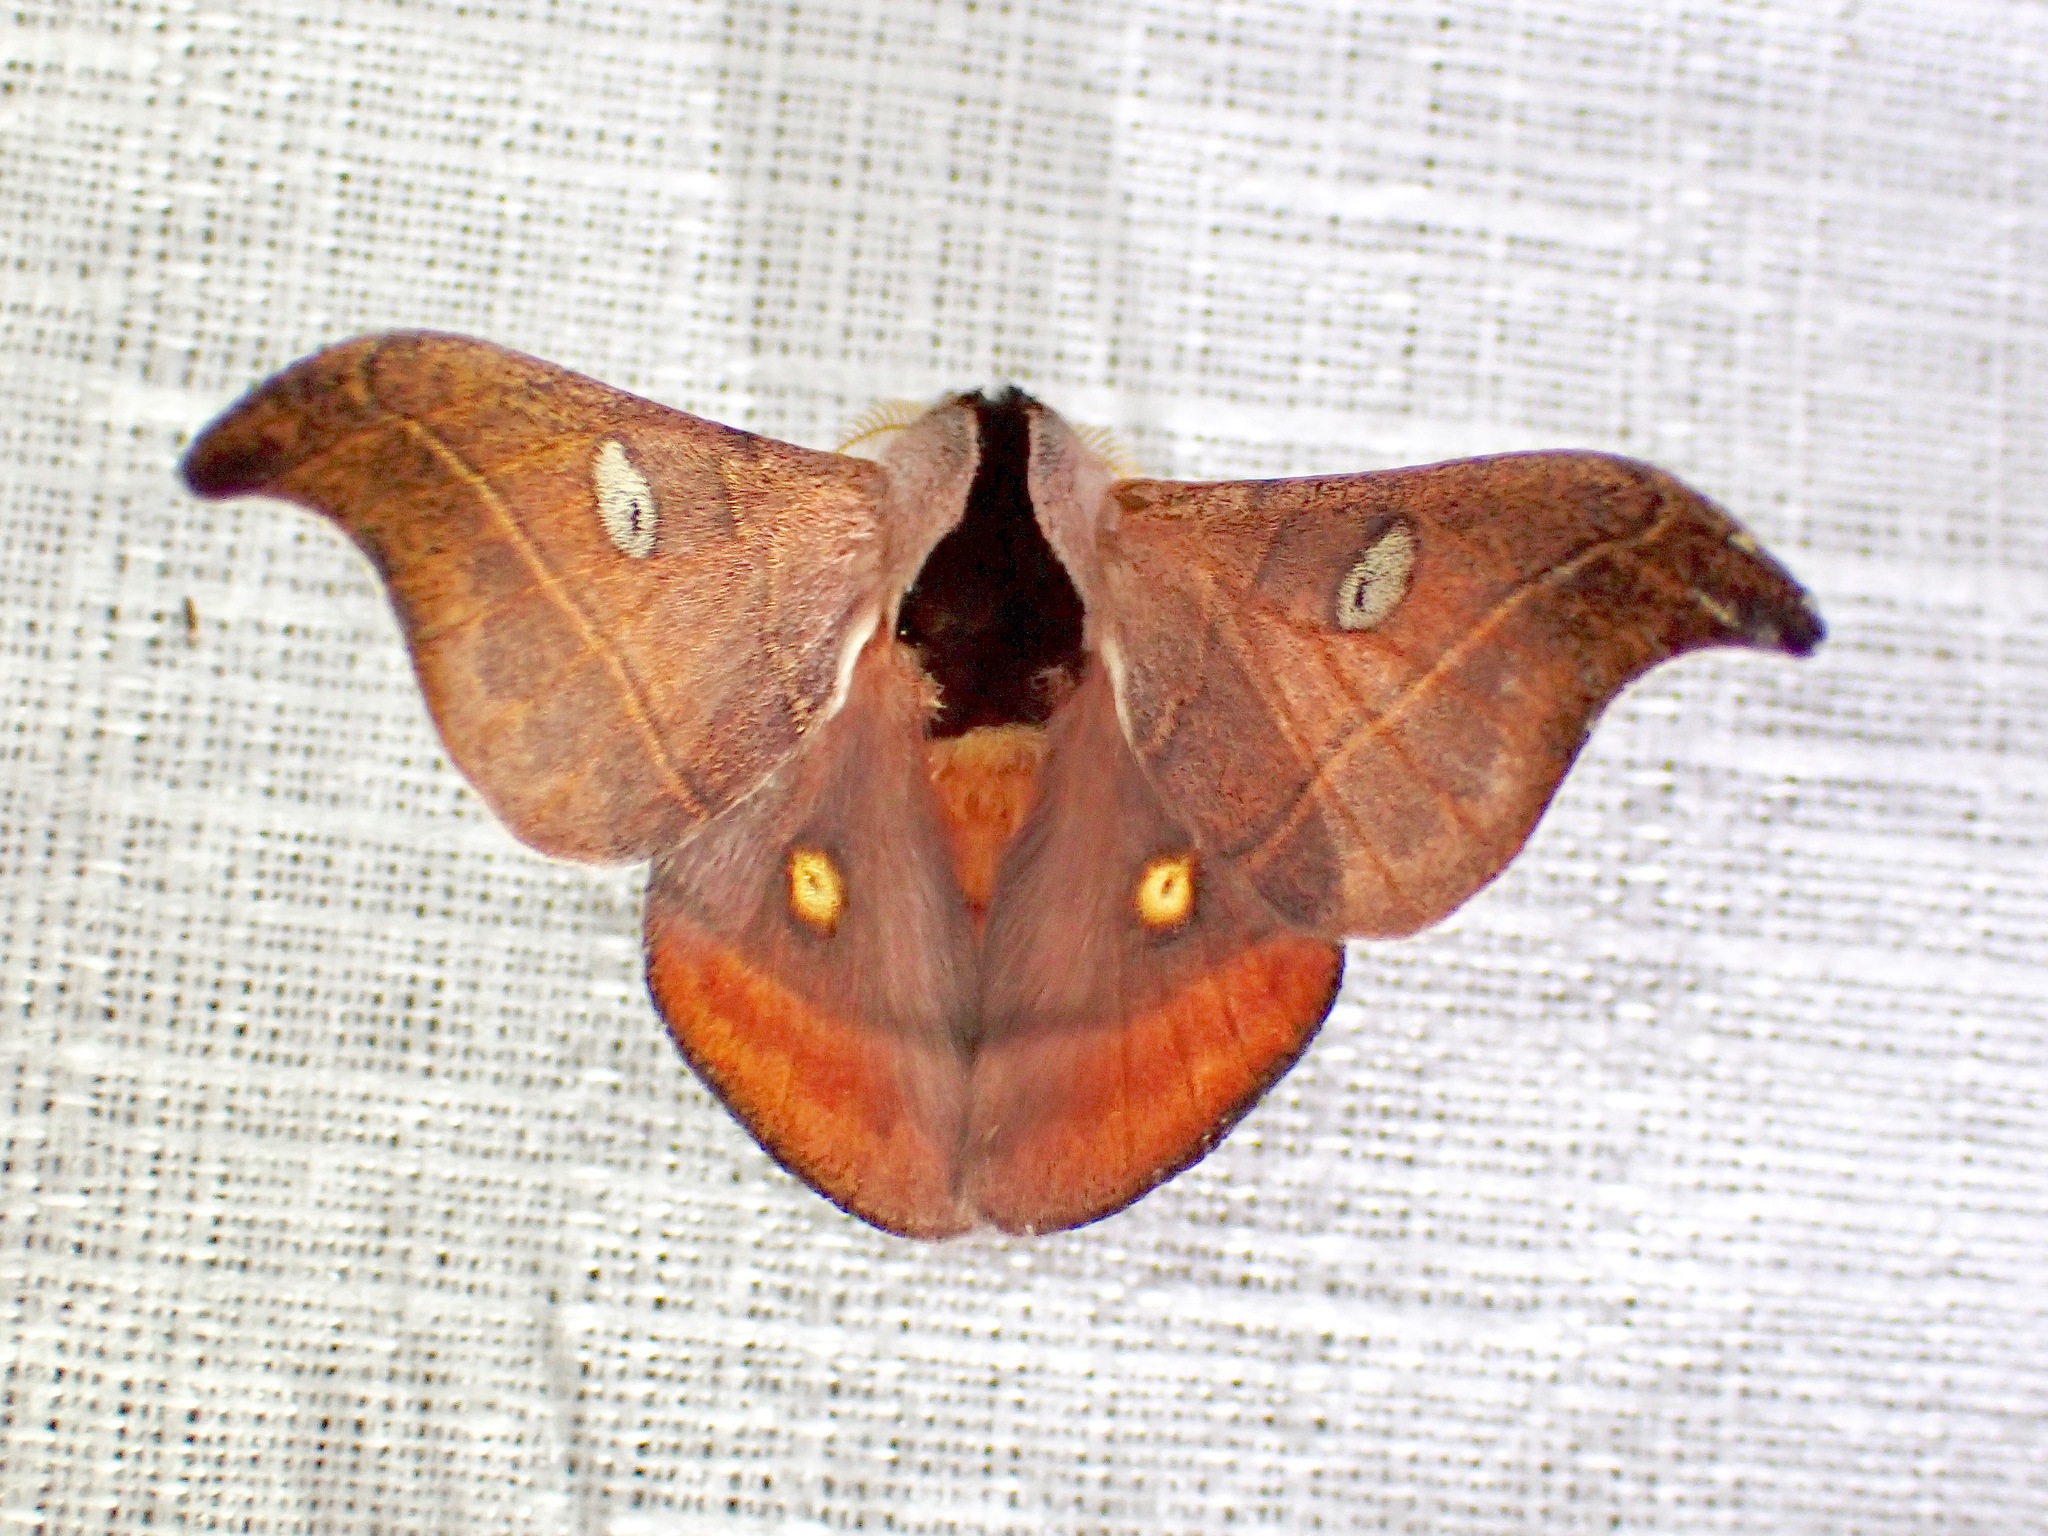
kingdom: Animalia
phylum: Arthropoda
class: Insecta
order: Lepidoptera
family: Saturniidae
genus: Hylesia
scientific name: Hylesia nanus
